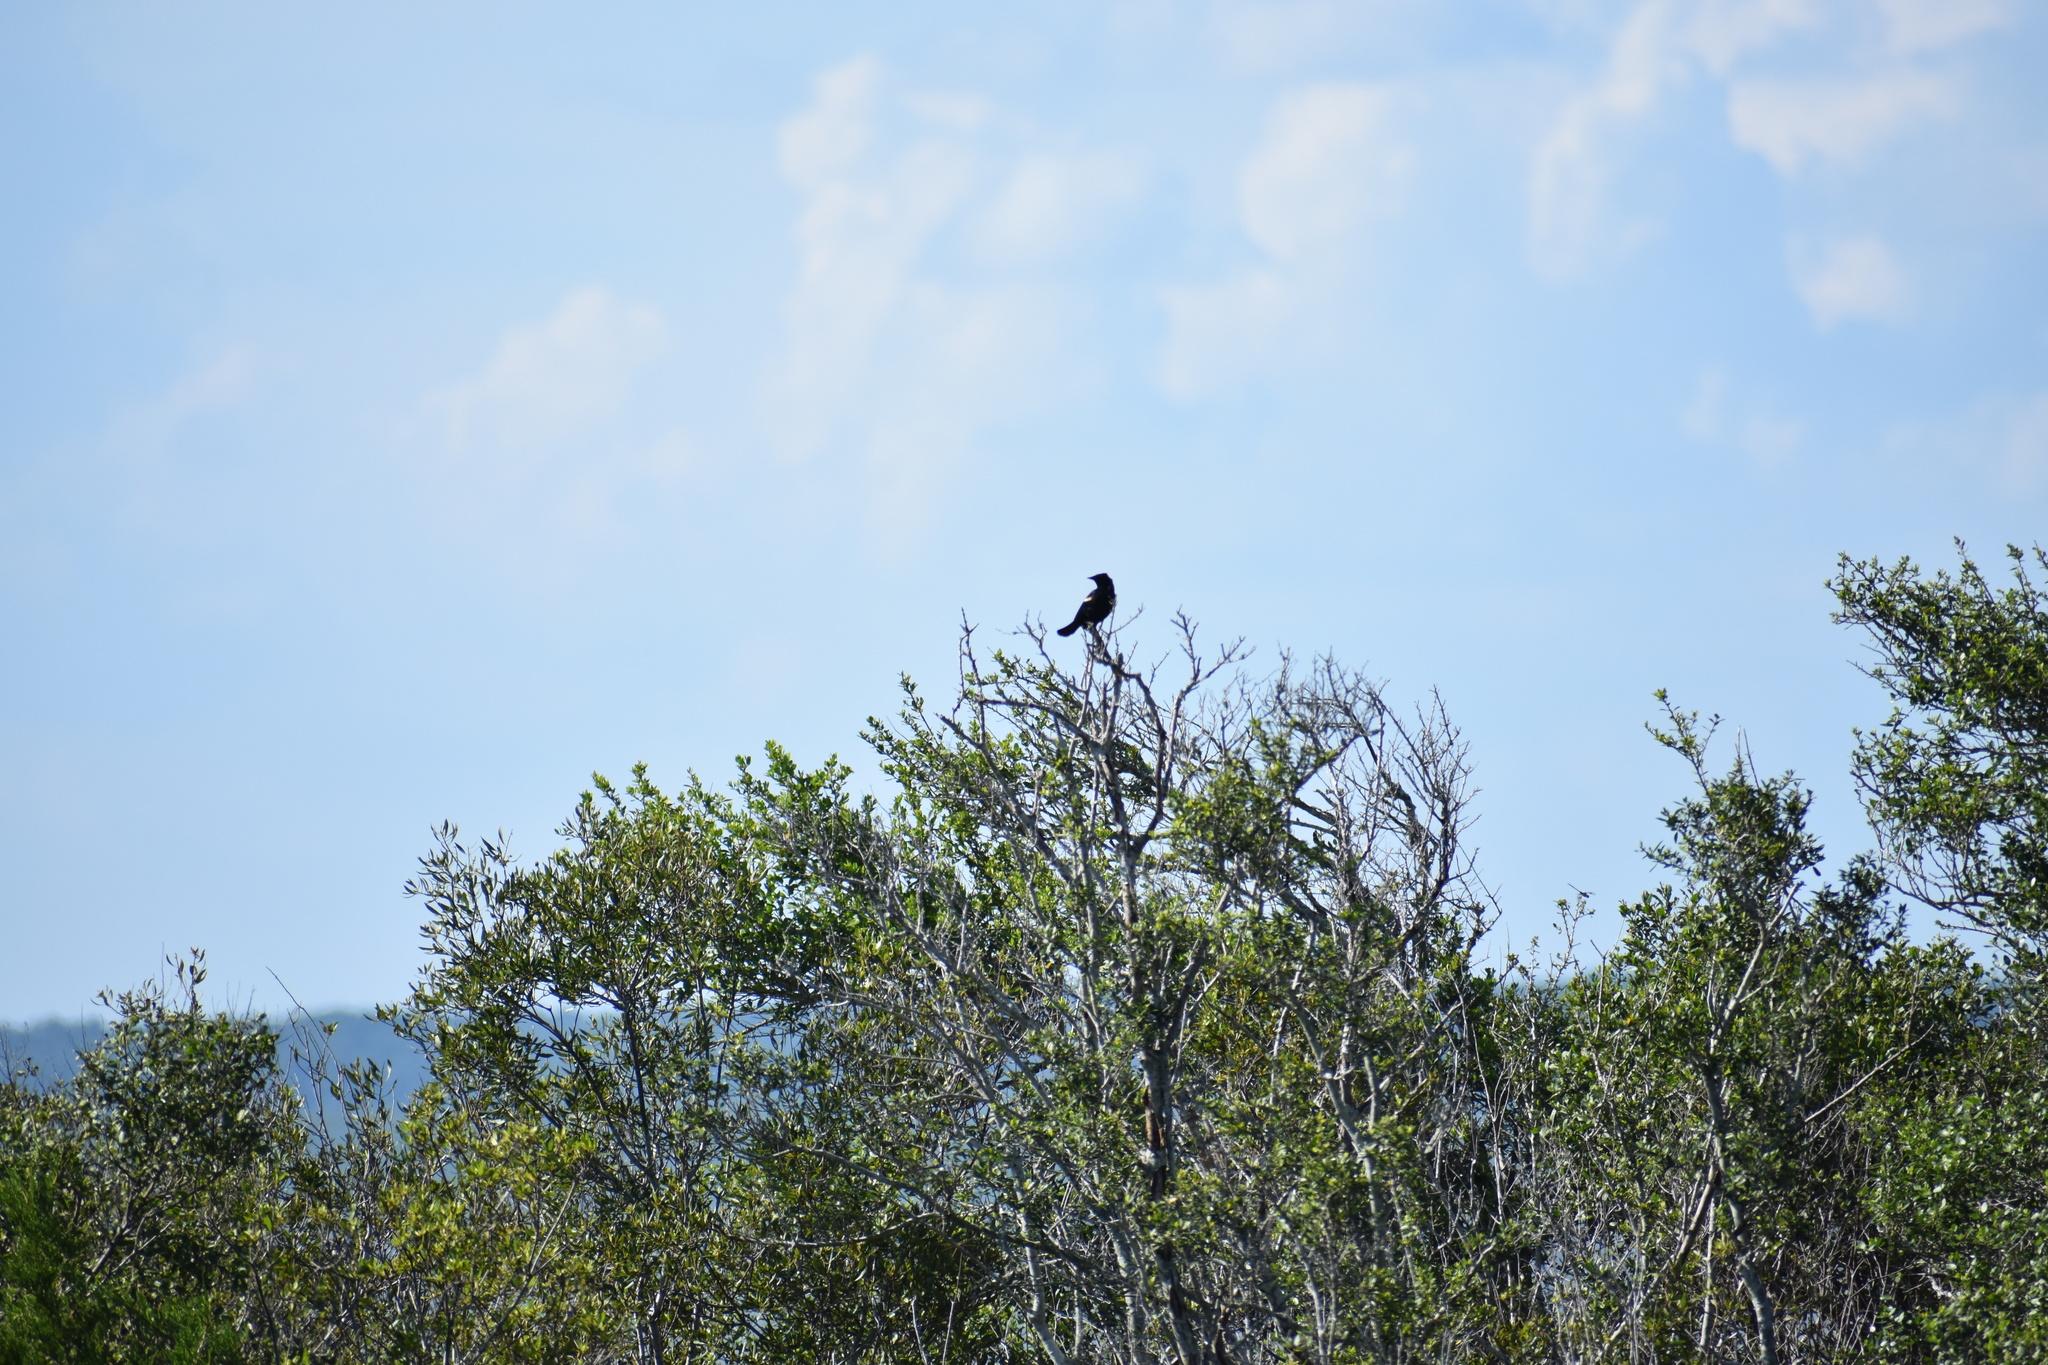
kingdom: Animalia
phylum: Chordata
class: Aves
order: Passeriformes
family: Icteridae
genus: Agelaius
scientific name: Agelaius phoeniceus
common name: Red-winged blackbird
